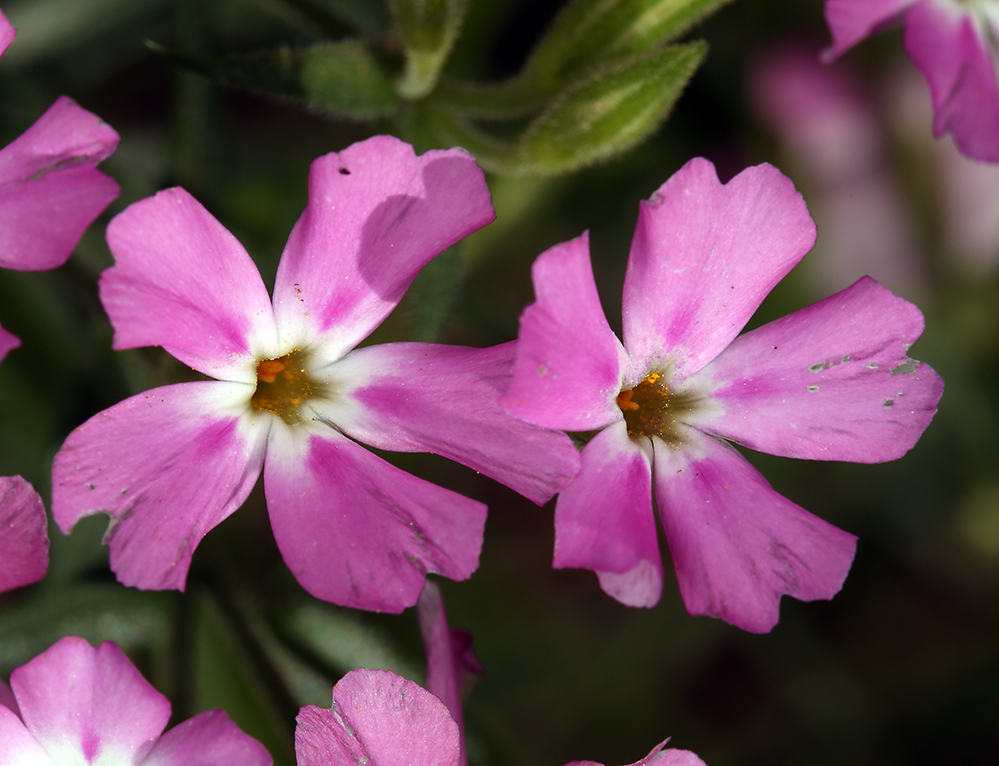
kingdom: Plantae
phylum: Tracheophyta
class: Magnoliopsida
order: Ericales
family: Polemoniaceae
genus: Phlox
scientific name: Phlox speciosa
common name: Bush phlox
